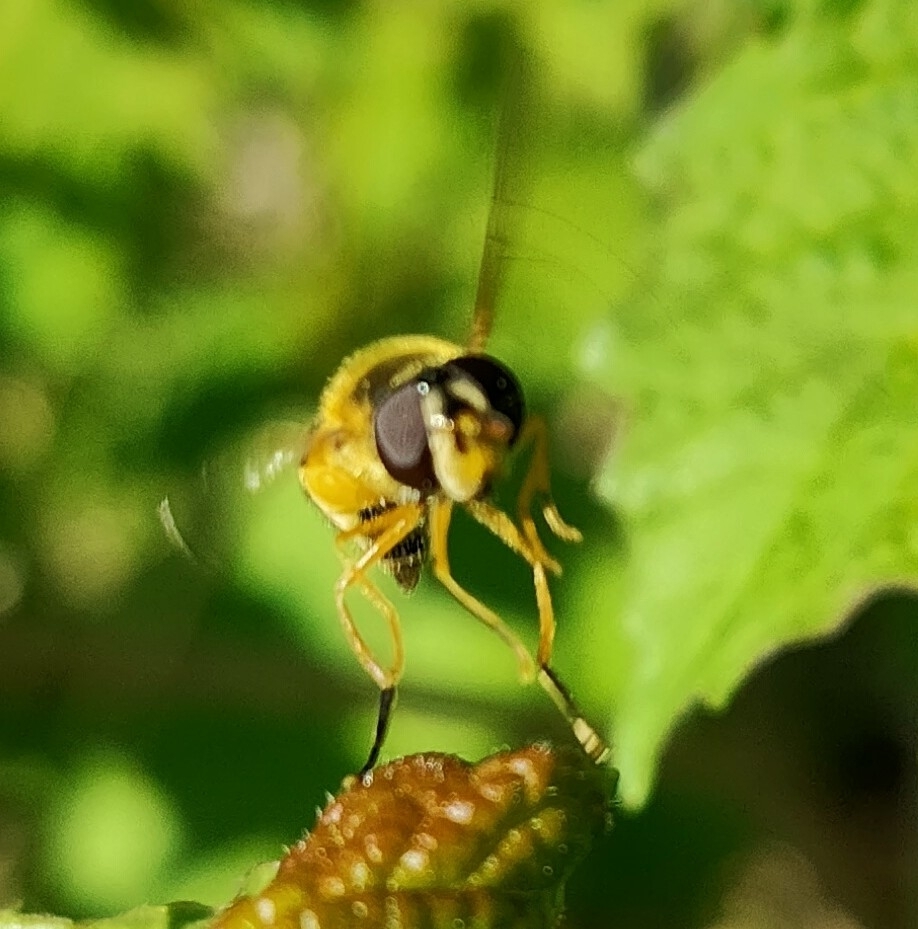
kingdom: Animalia
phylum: Arthropoda
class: Insecta
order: Diptera
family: Syrphidae
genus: Epistrophe
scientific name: Epistrophe eligans
